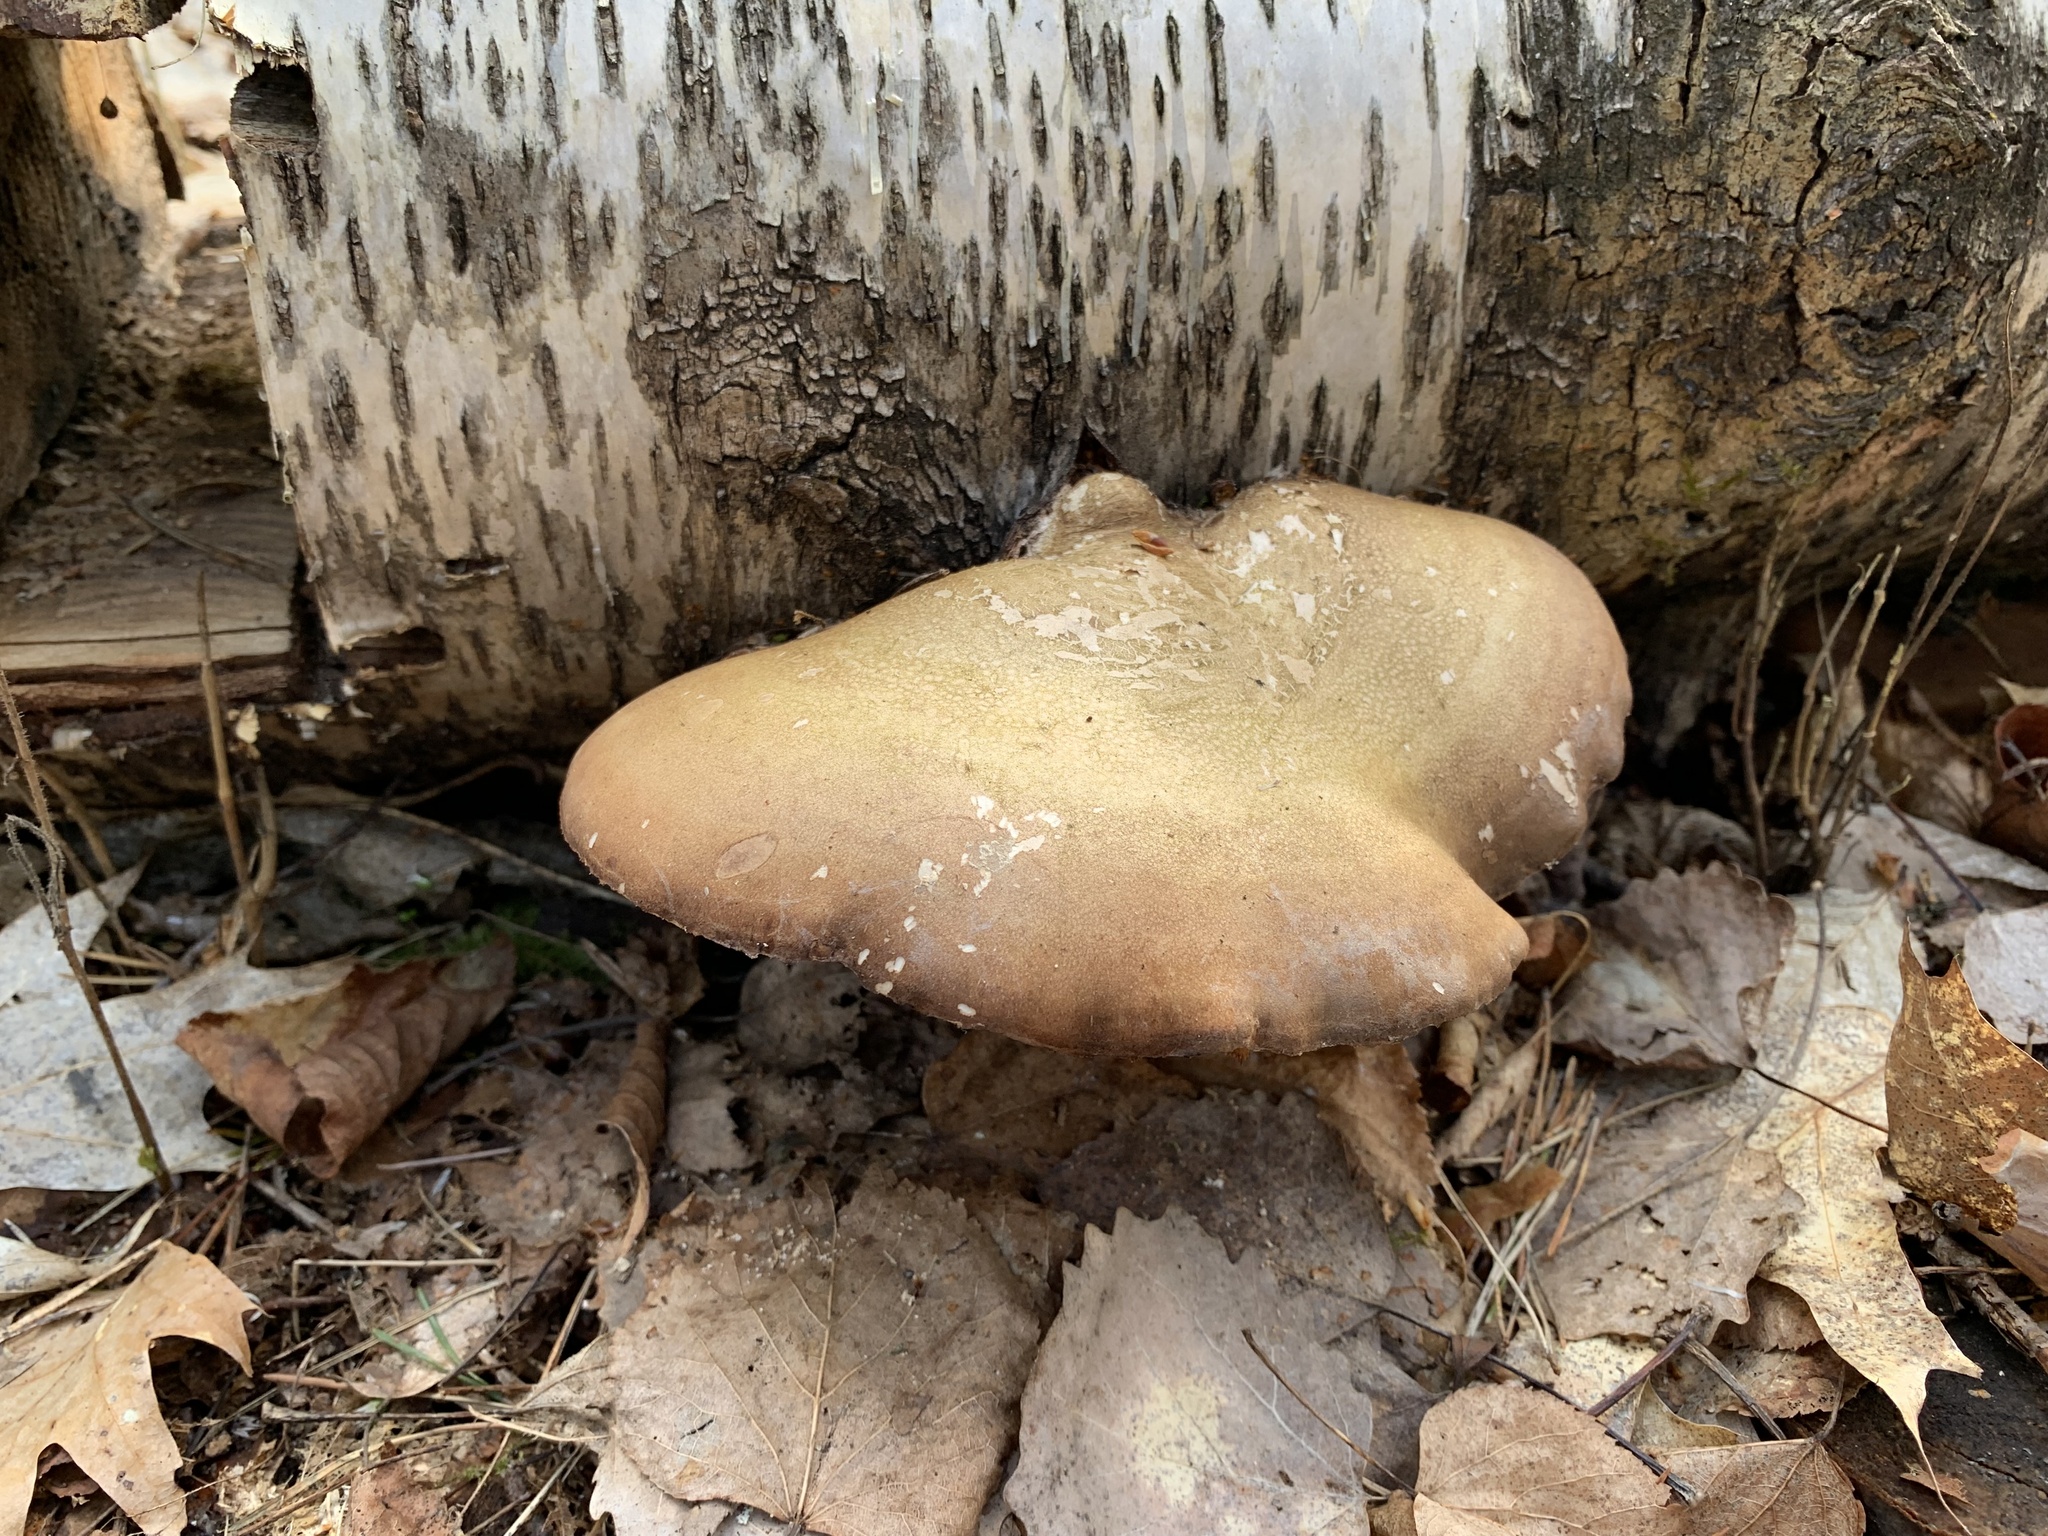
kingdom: Fungi
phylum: Basidiomycota
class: Agaricomycetes
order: Polyporales
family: Fomitopsidaceae
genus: Fomitopsis
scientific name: Fomitopsis betulina
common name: Birch polypore
